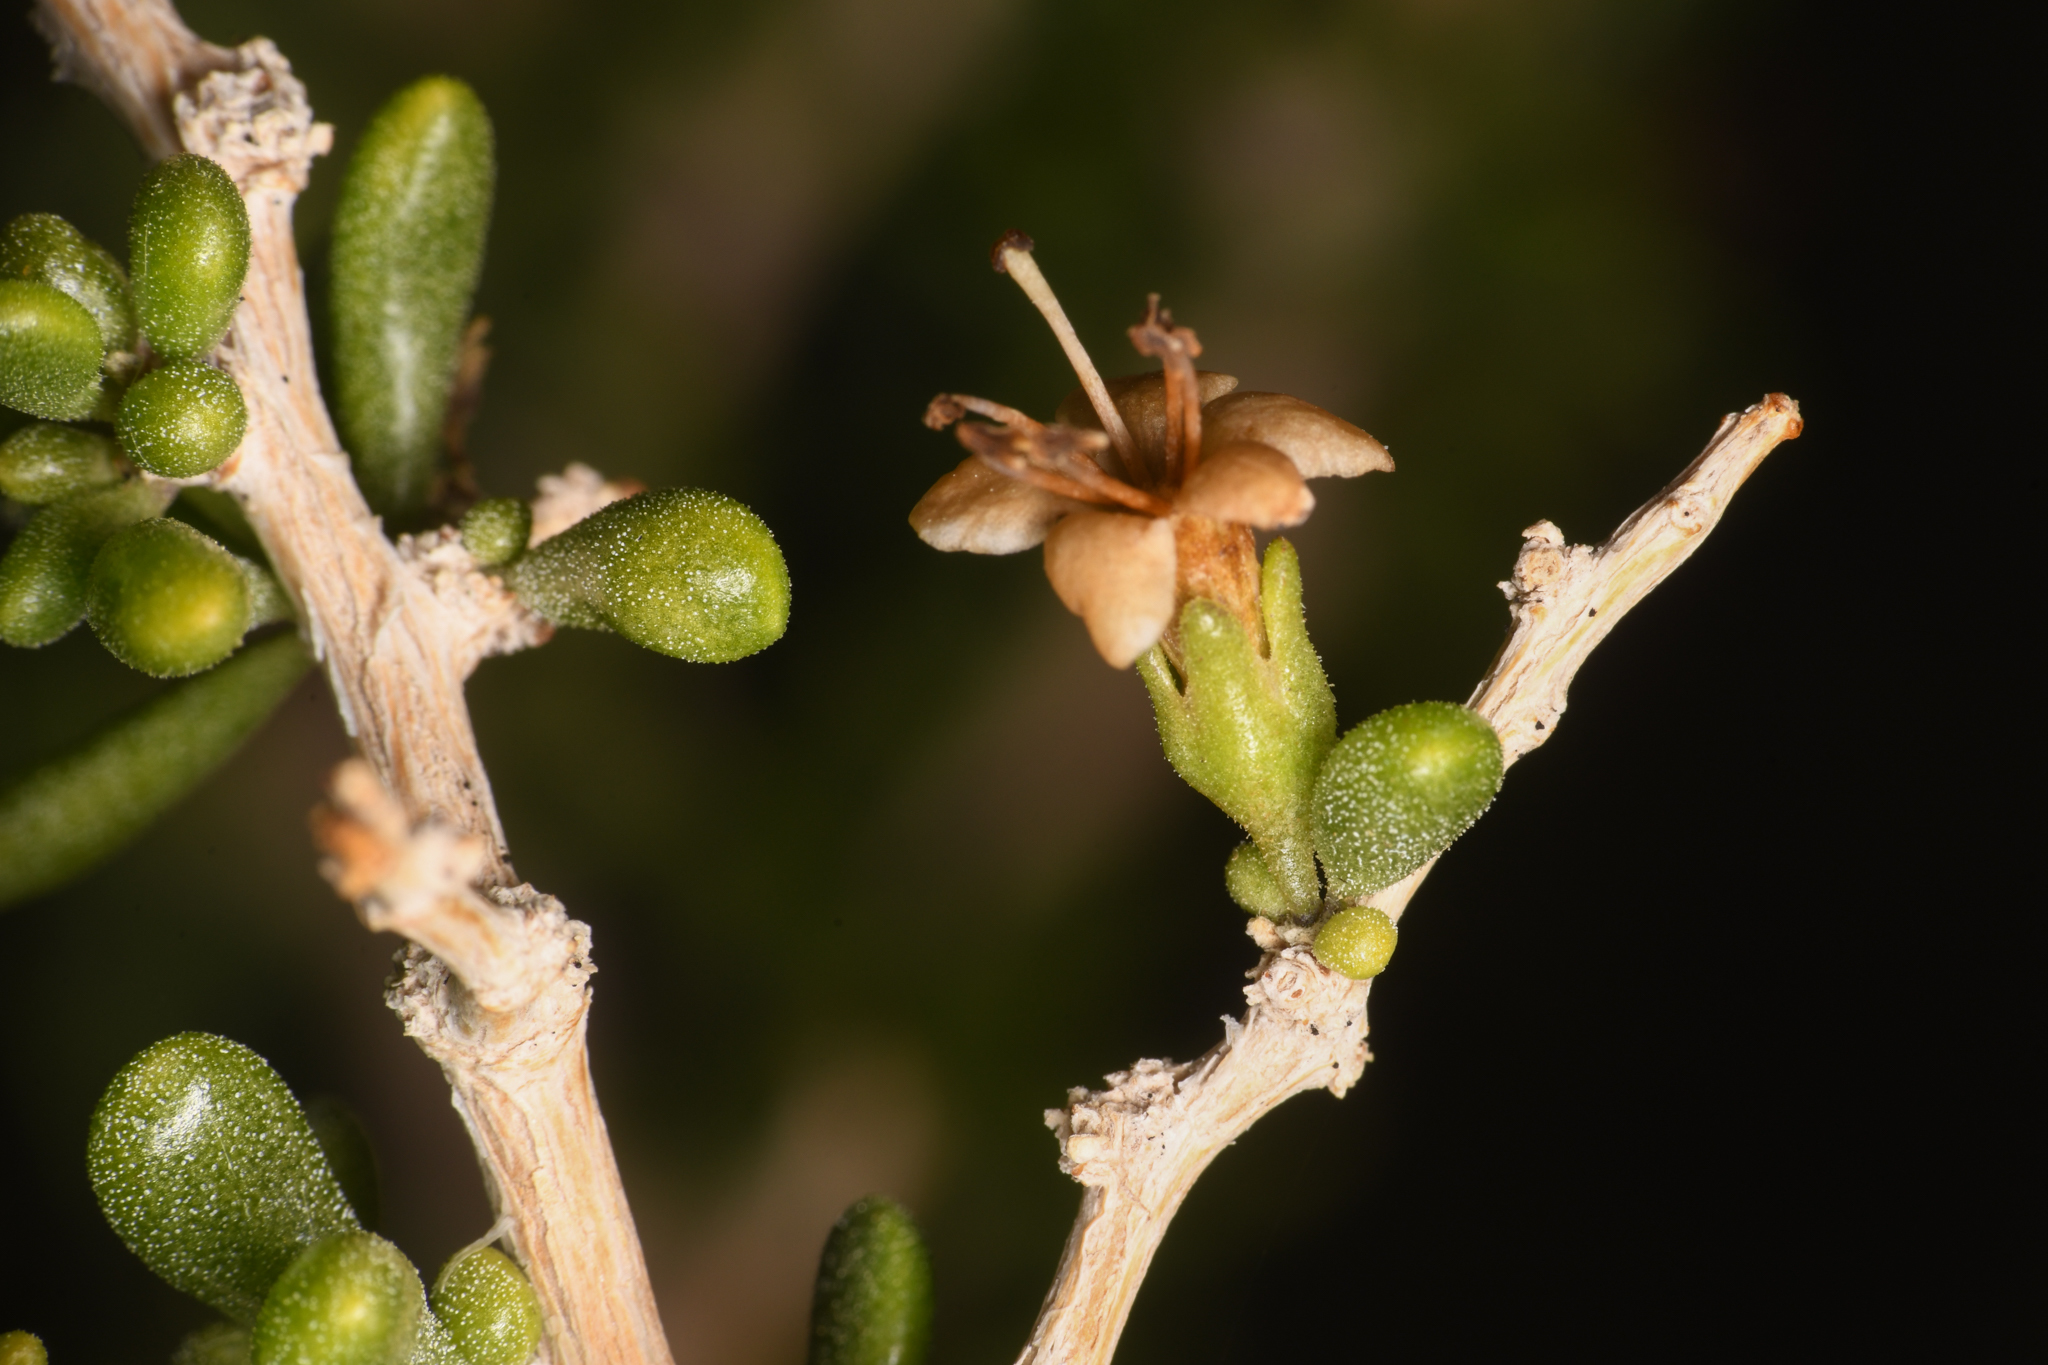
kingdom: Plantae
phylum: Tracheophyta
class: Magnoliopsida
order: Solanales
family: Solanaceae
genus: Lycium
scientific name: Lycium brevipes
